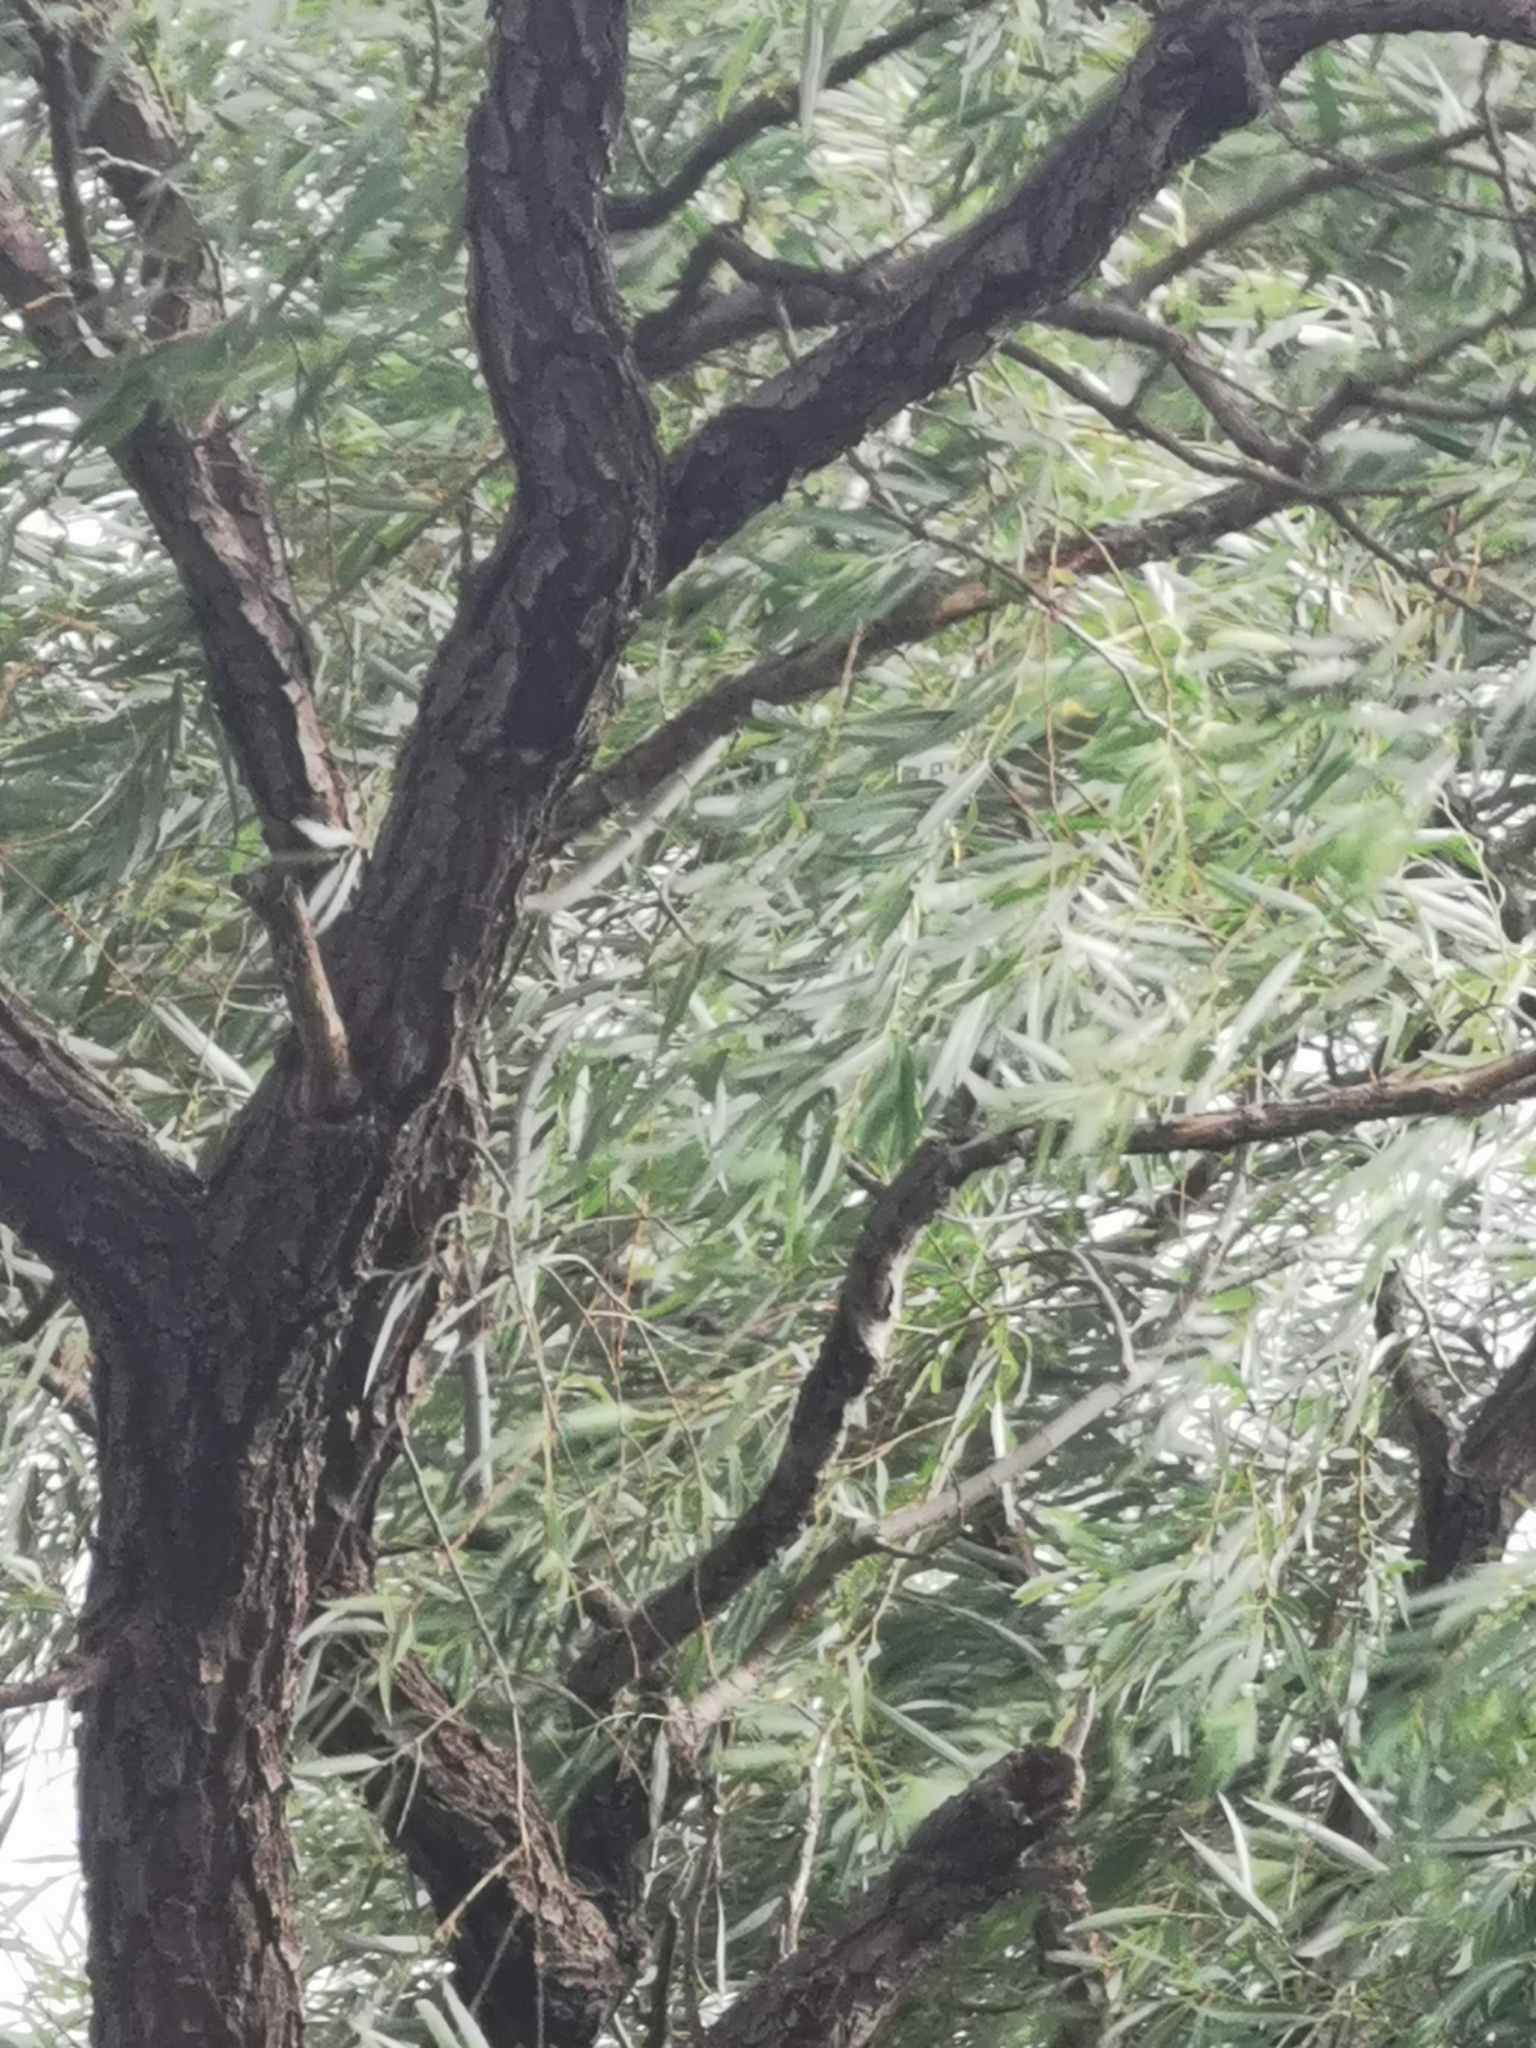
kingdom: Plantae
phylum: Tracheophyta
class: Magnoliopsida
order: Malpighiales
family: Salicaceae
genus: Salix
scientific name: Salix bonplandiana
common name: Bonpland’s willow
